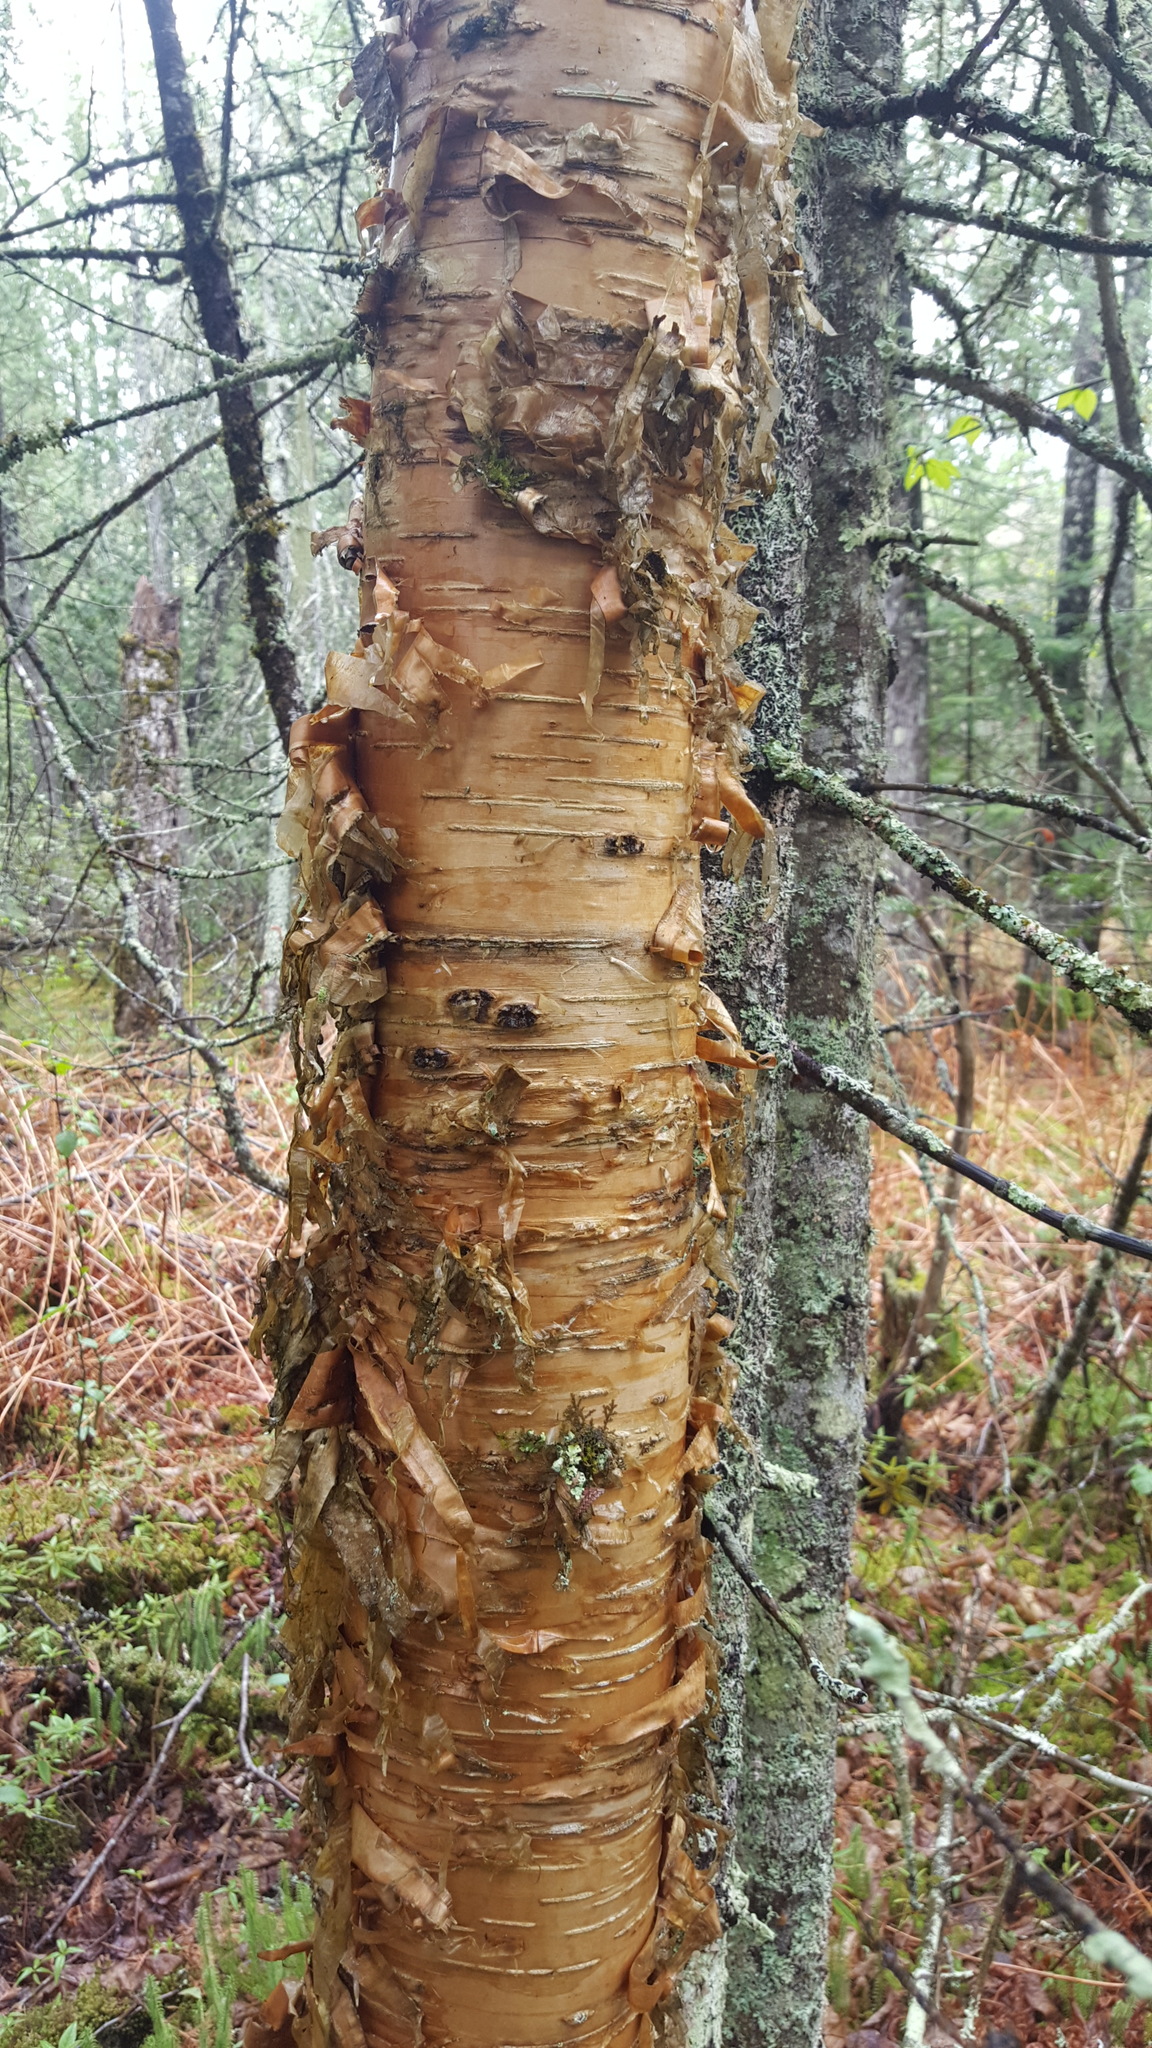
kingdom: Plantae
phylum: Tracheophyta
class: Magnoliopsida
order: Fagales
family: Betulaceae
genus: Betula
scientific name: Betula alleghaniensis
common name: Yellow birch
